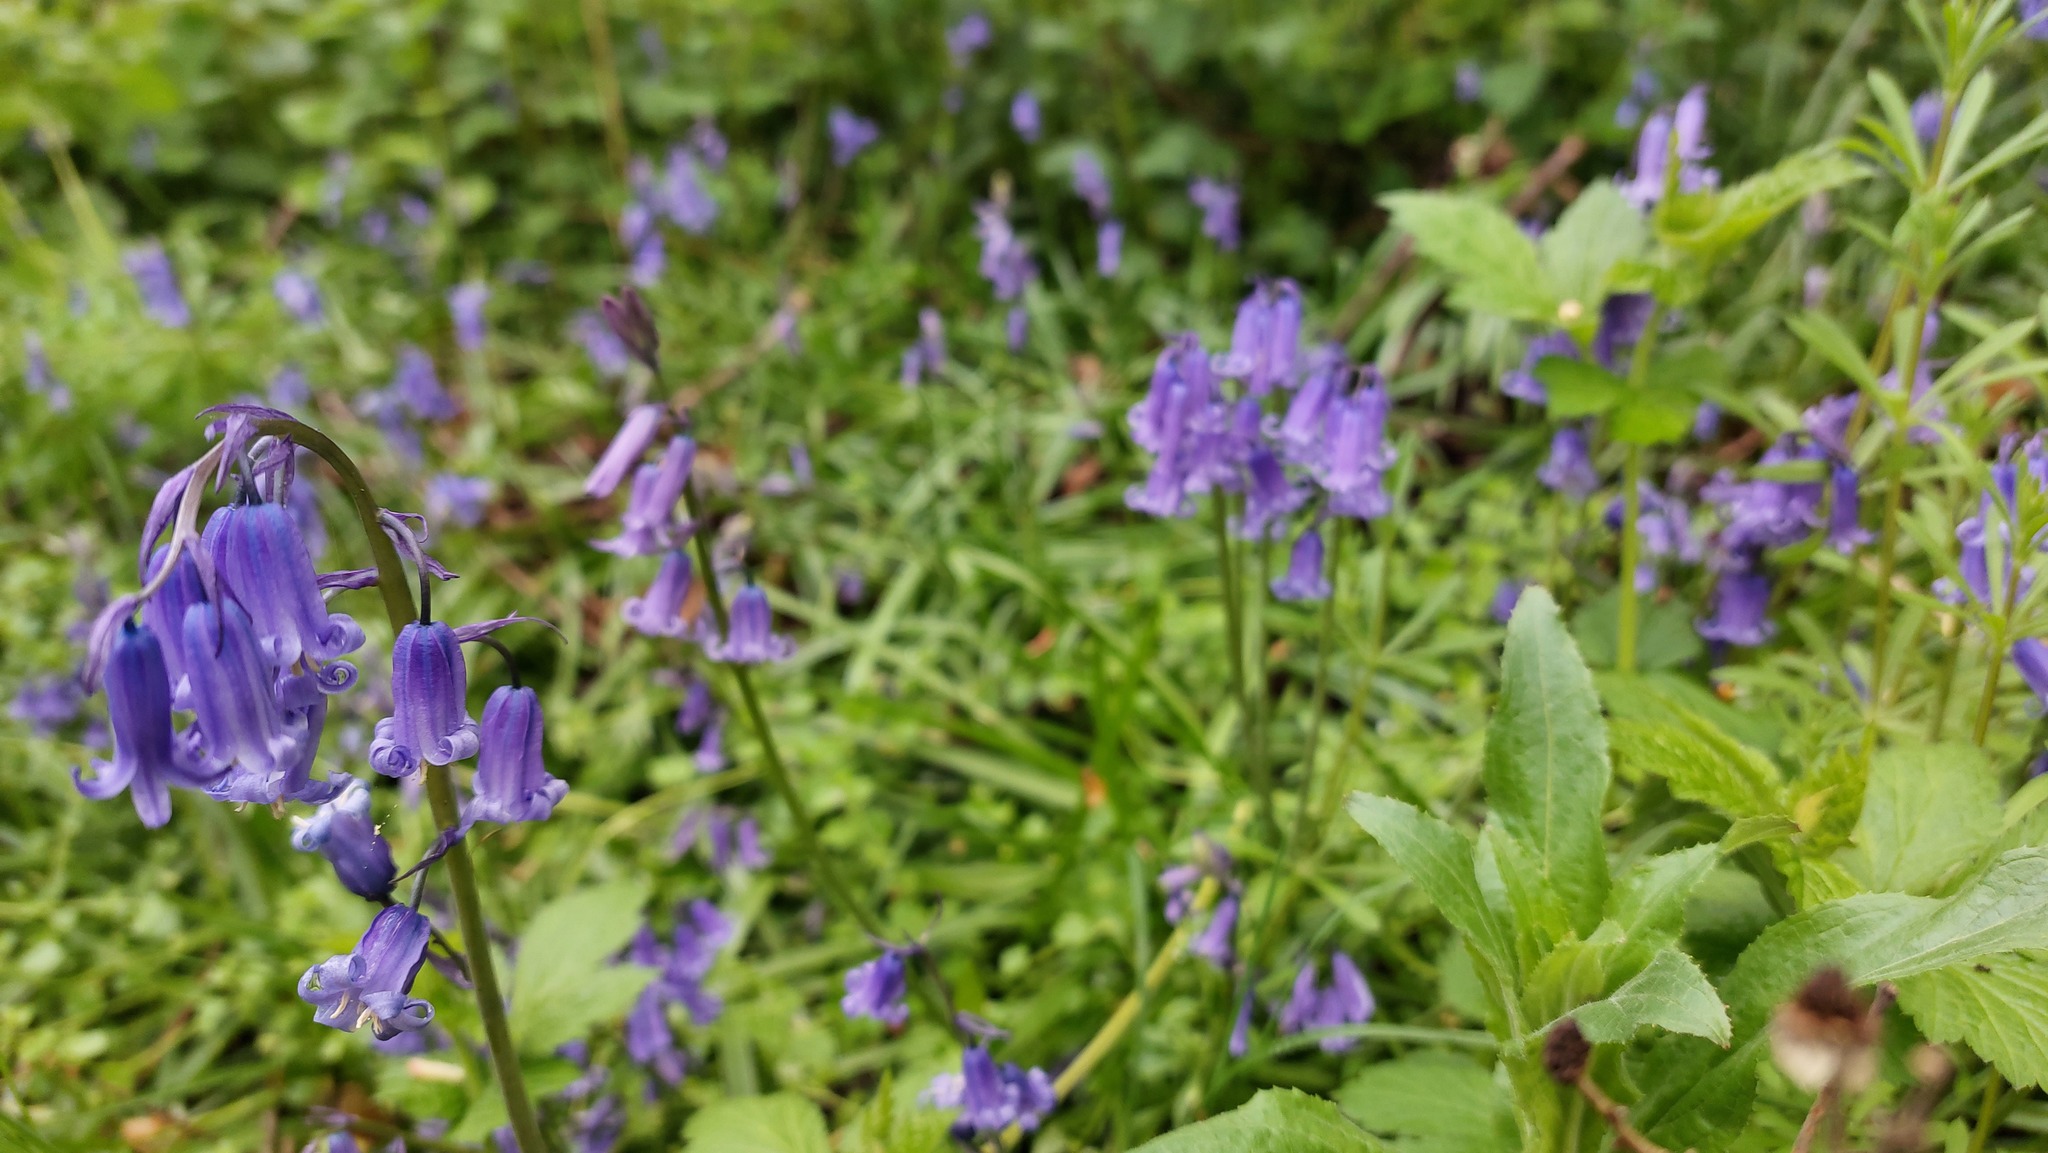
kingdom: Plantae
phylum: Tracheophyta
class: Liliopsida
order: Asparagales
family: Asparagaceae
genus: Hyacinthoides
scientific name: Hyacinthoides non-scripta
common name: Bluebell
